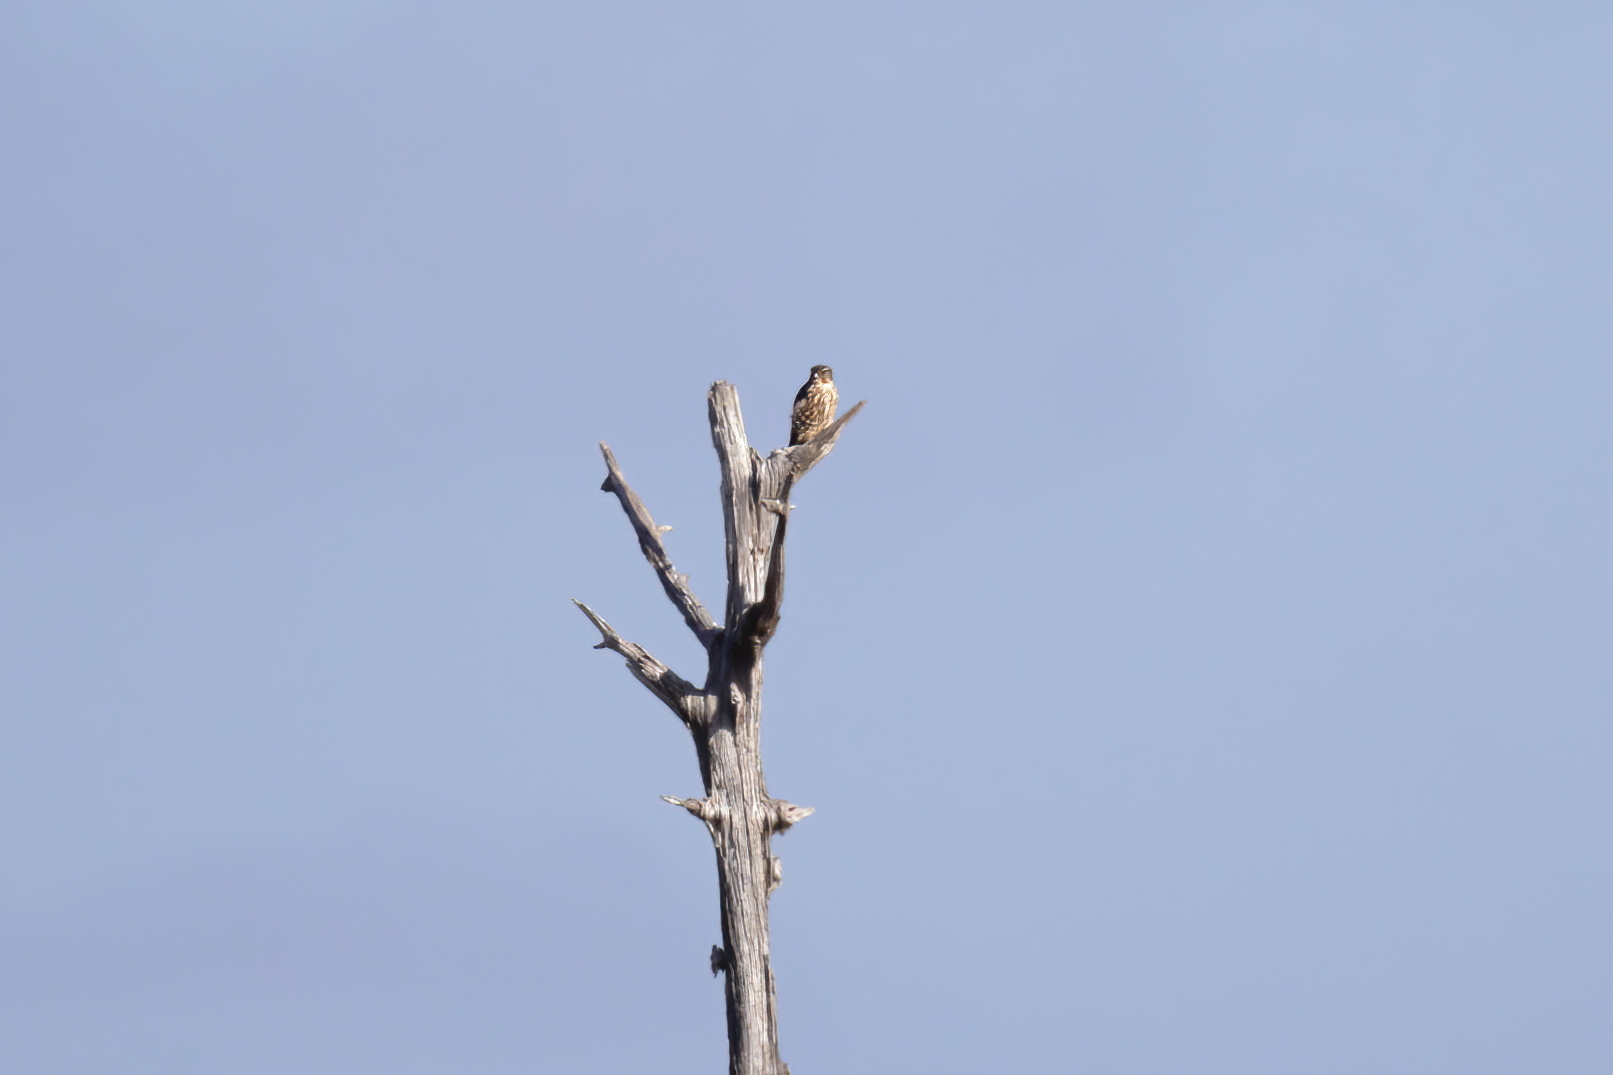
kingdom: Animalia
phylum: Chordata
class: Aves
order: Falconiformes
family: Falconidae
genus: Falco
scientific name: Falco columbarius
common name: Merlin
